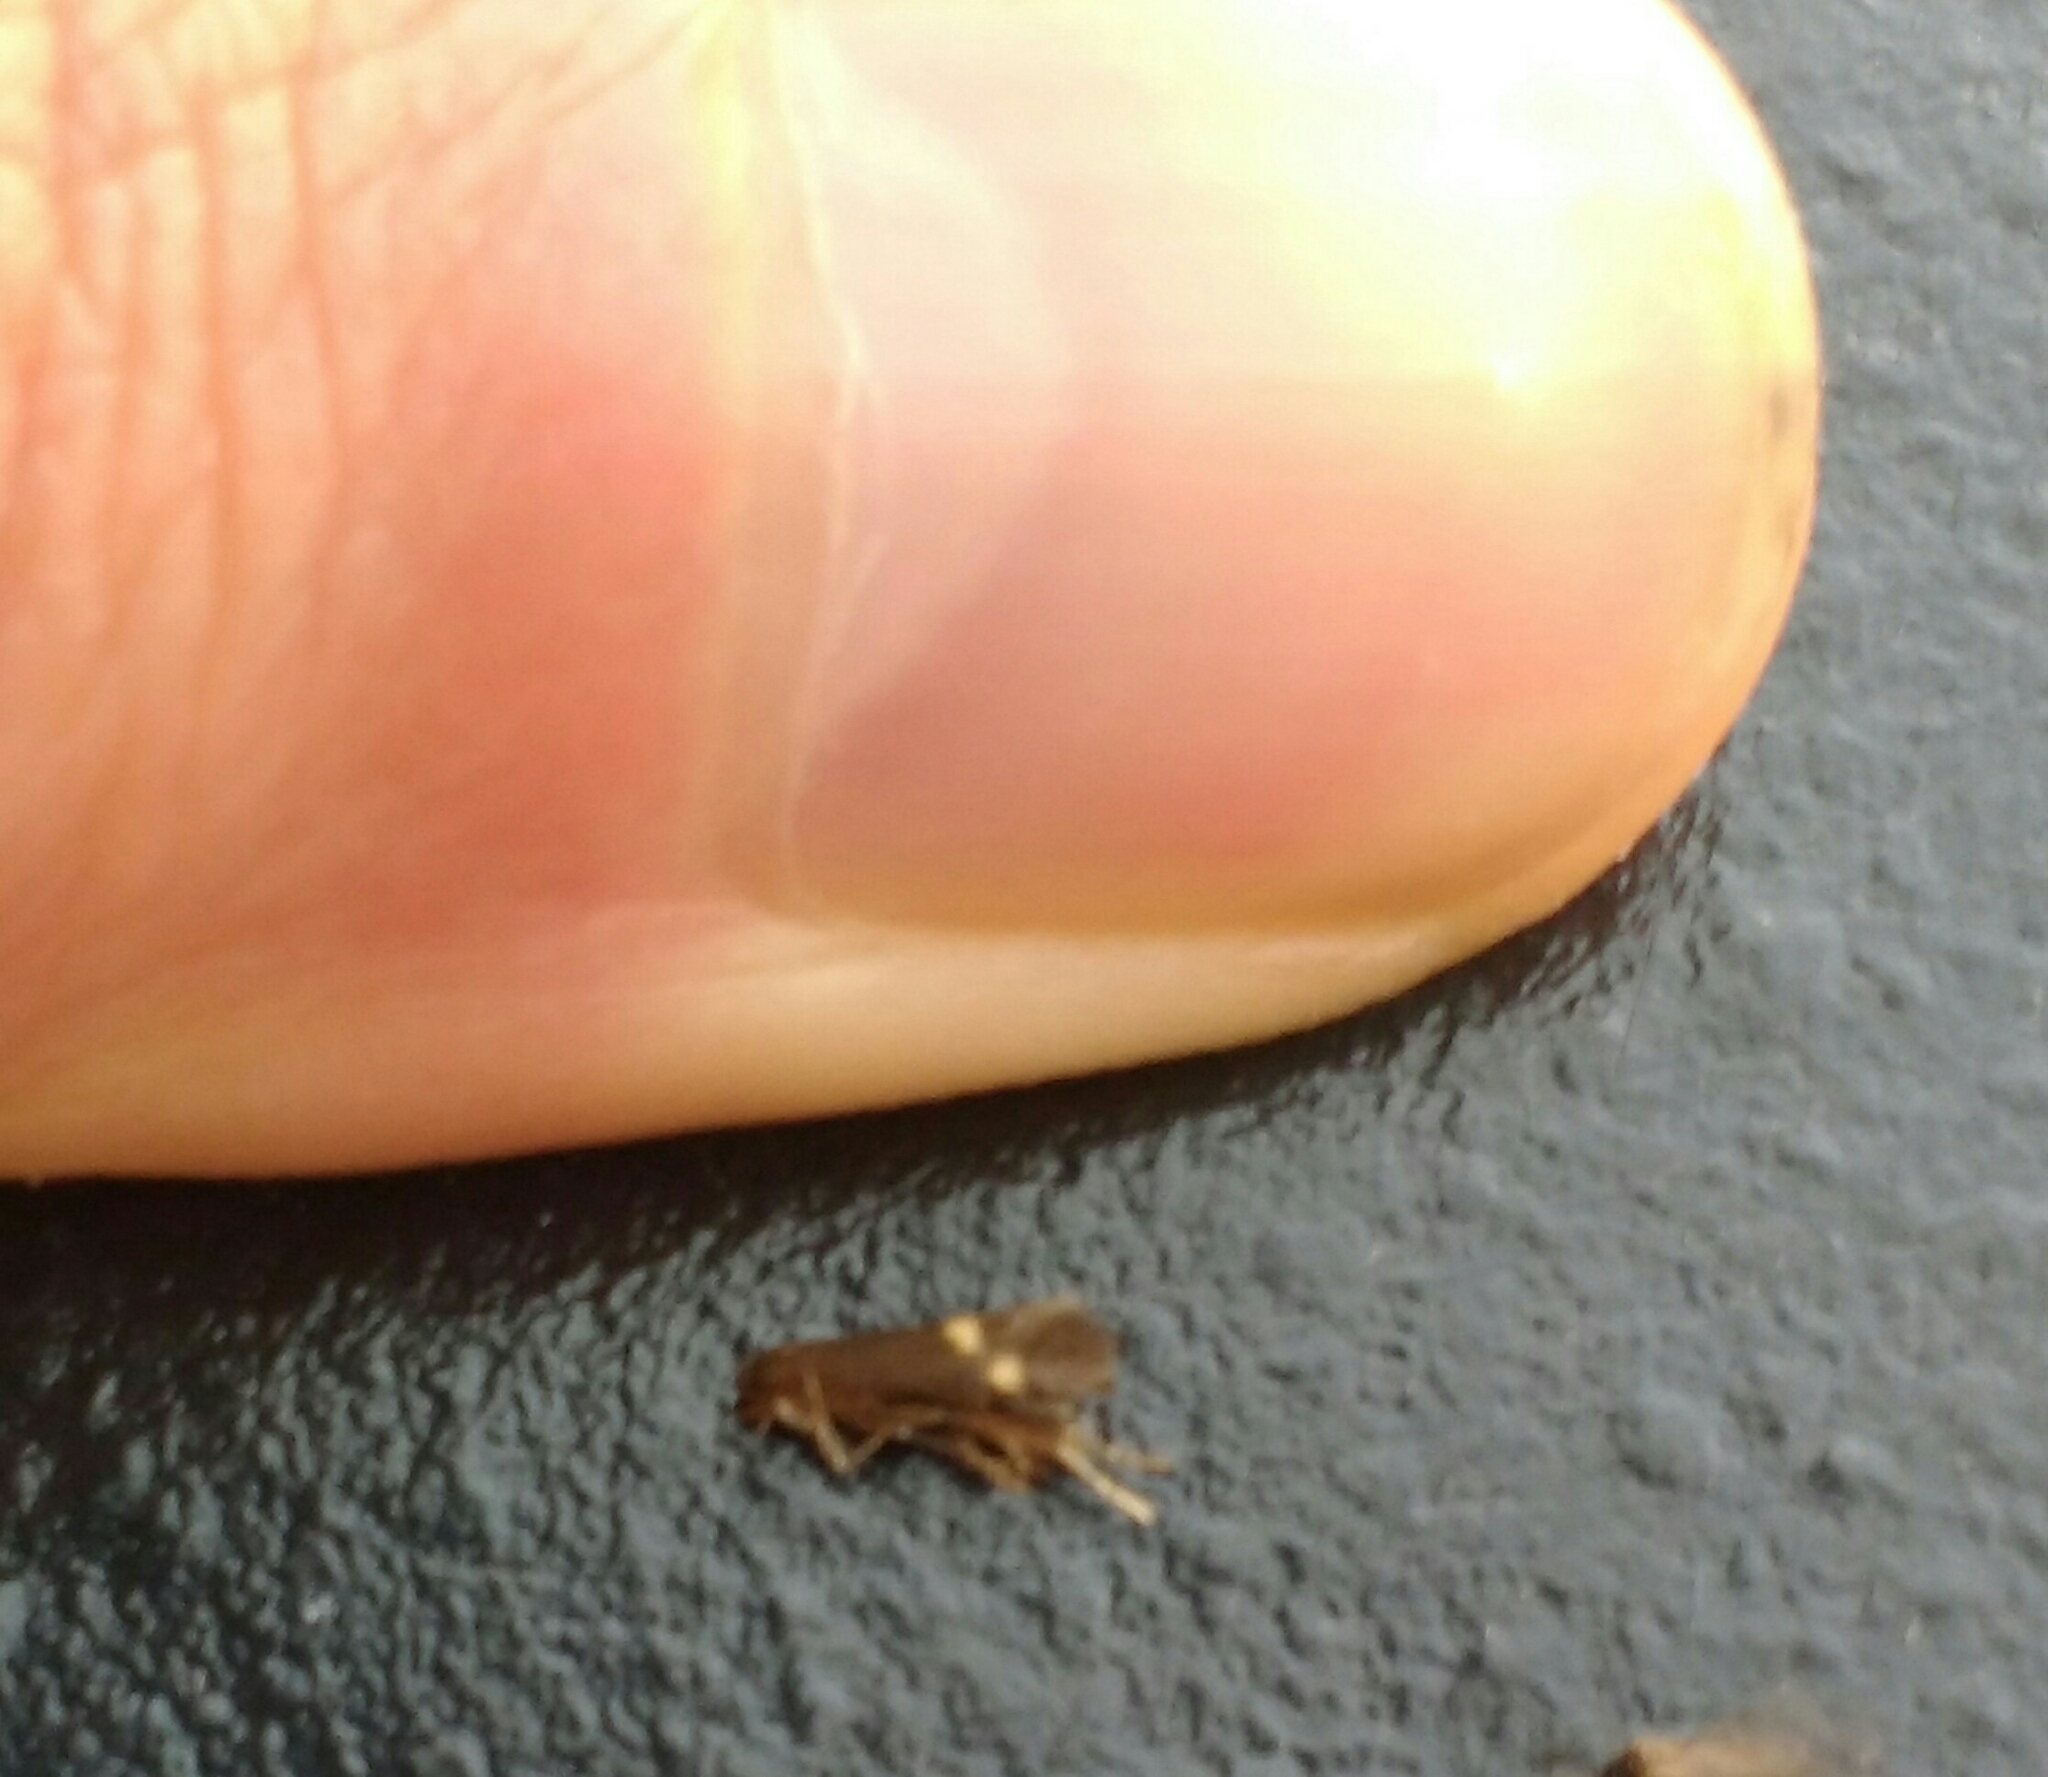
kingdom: Animalia
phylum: Arthropoda
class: Insecta
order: Lepidoptera
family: Oecophoridae
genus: Borkhausenia
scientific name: Borkhausenia minutella
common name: Thatch tubic
